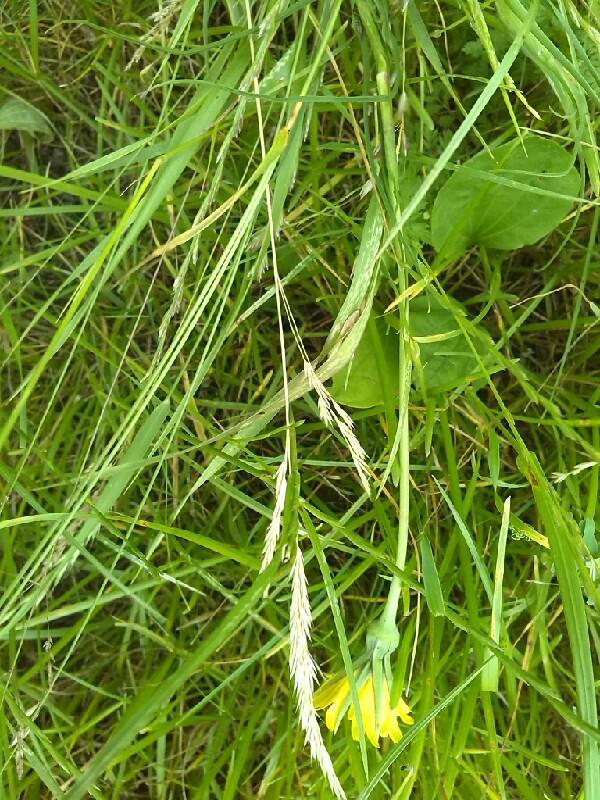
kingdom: Plantae
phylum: Tracheophyta
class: Magnoliopsida
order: Asterales
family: Asteraceae
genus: Tragopogon
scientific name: Tragopogon pratensis
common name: Goat's-beard
